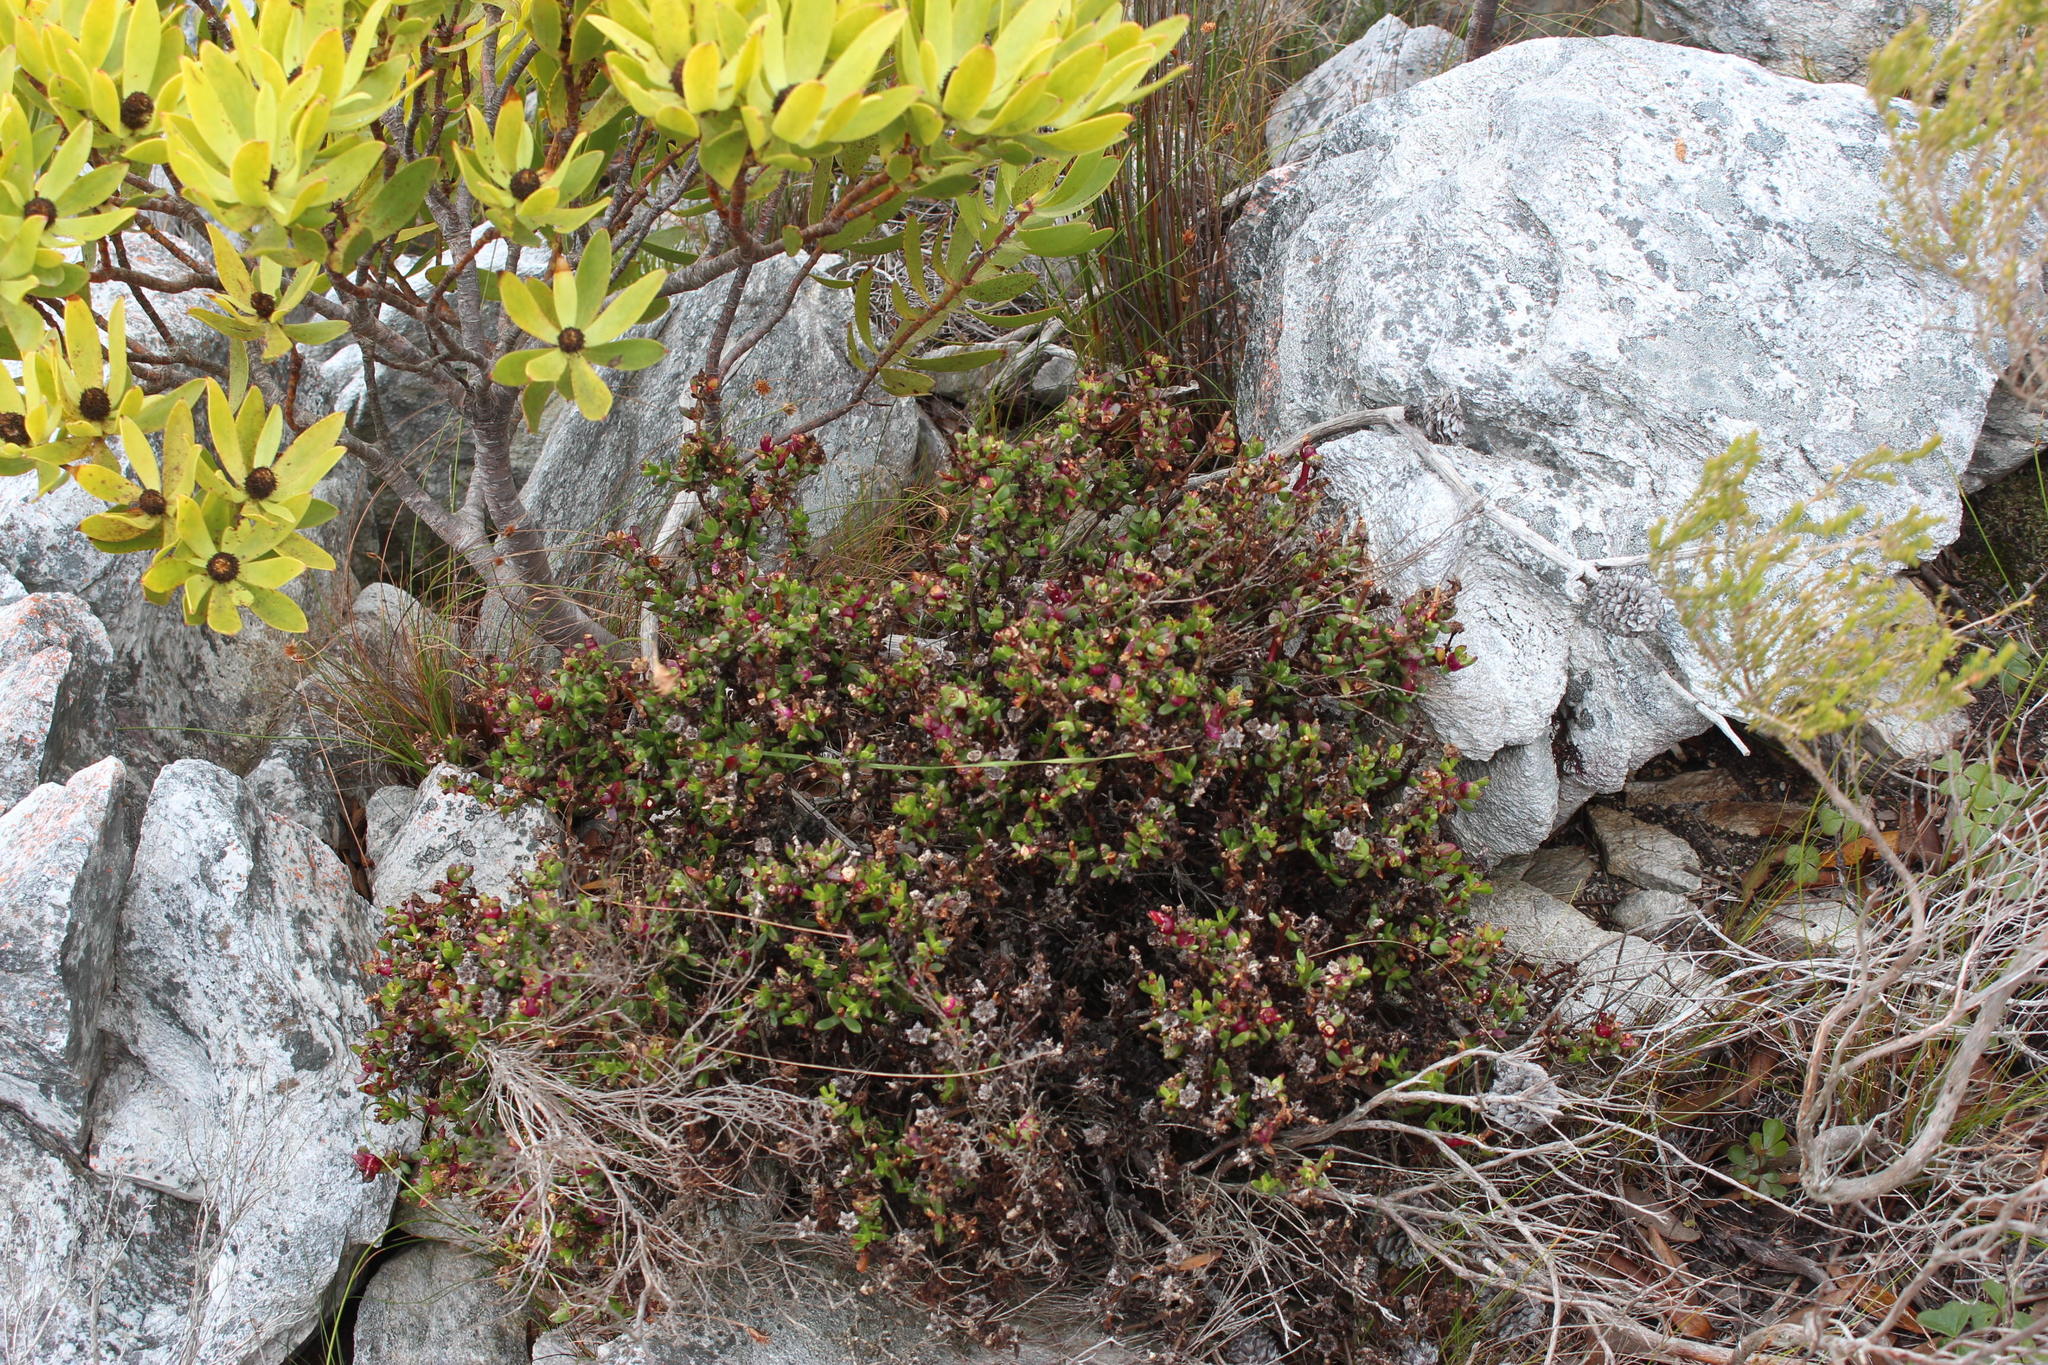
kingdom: Plantae
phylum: Tracheophyta
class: Magnoliopsida
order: Caryophyllales
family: Aizoaceae
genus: Erepsia
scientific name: Erepsia inclaudens
